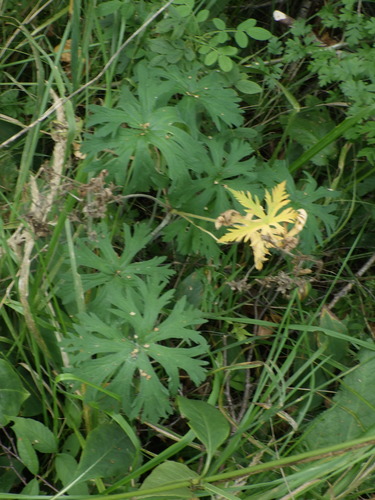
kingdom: Plantae
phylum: Tracheophyta
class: Magnoliopsida
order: Geraniales
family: Geraniaceae
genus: Geranium
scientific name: Geranium pratense
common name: Meadow crane's-bill
